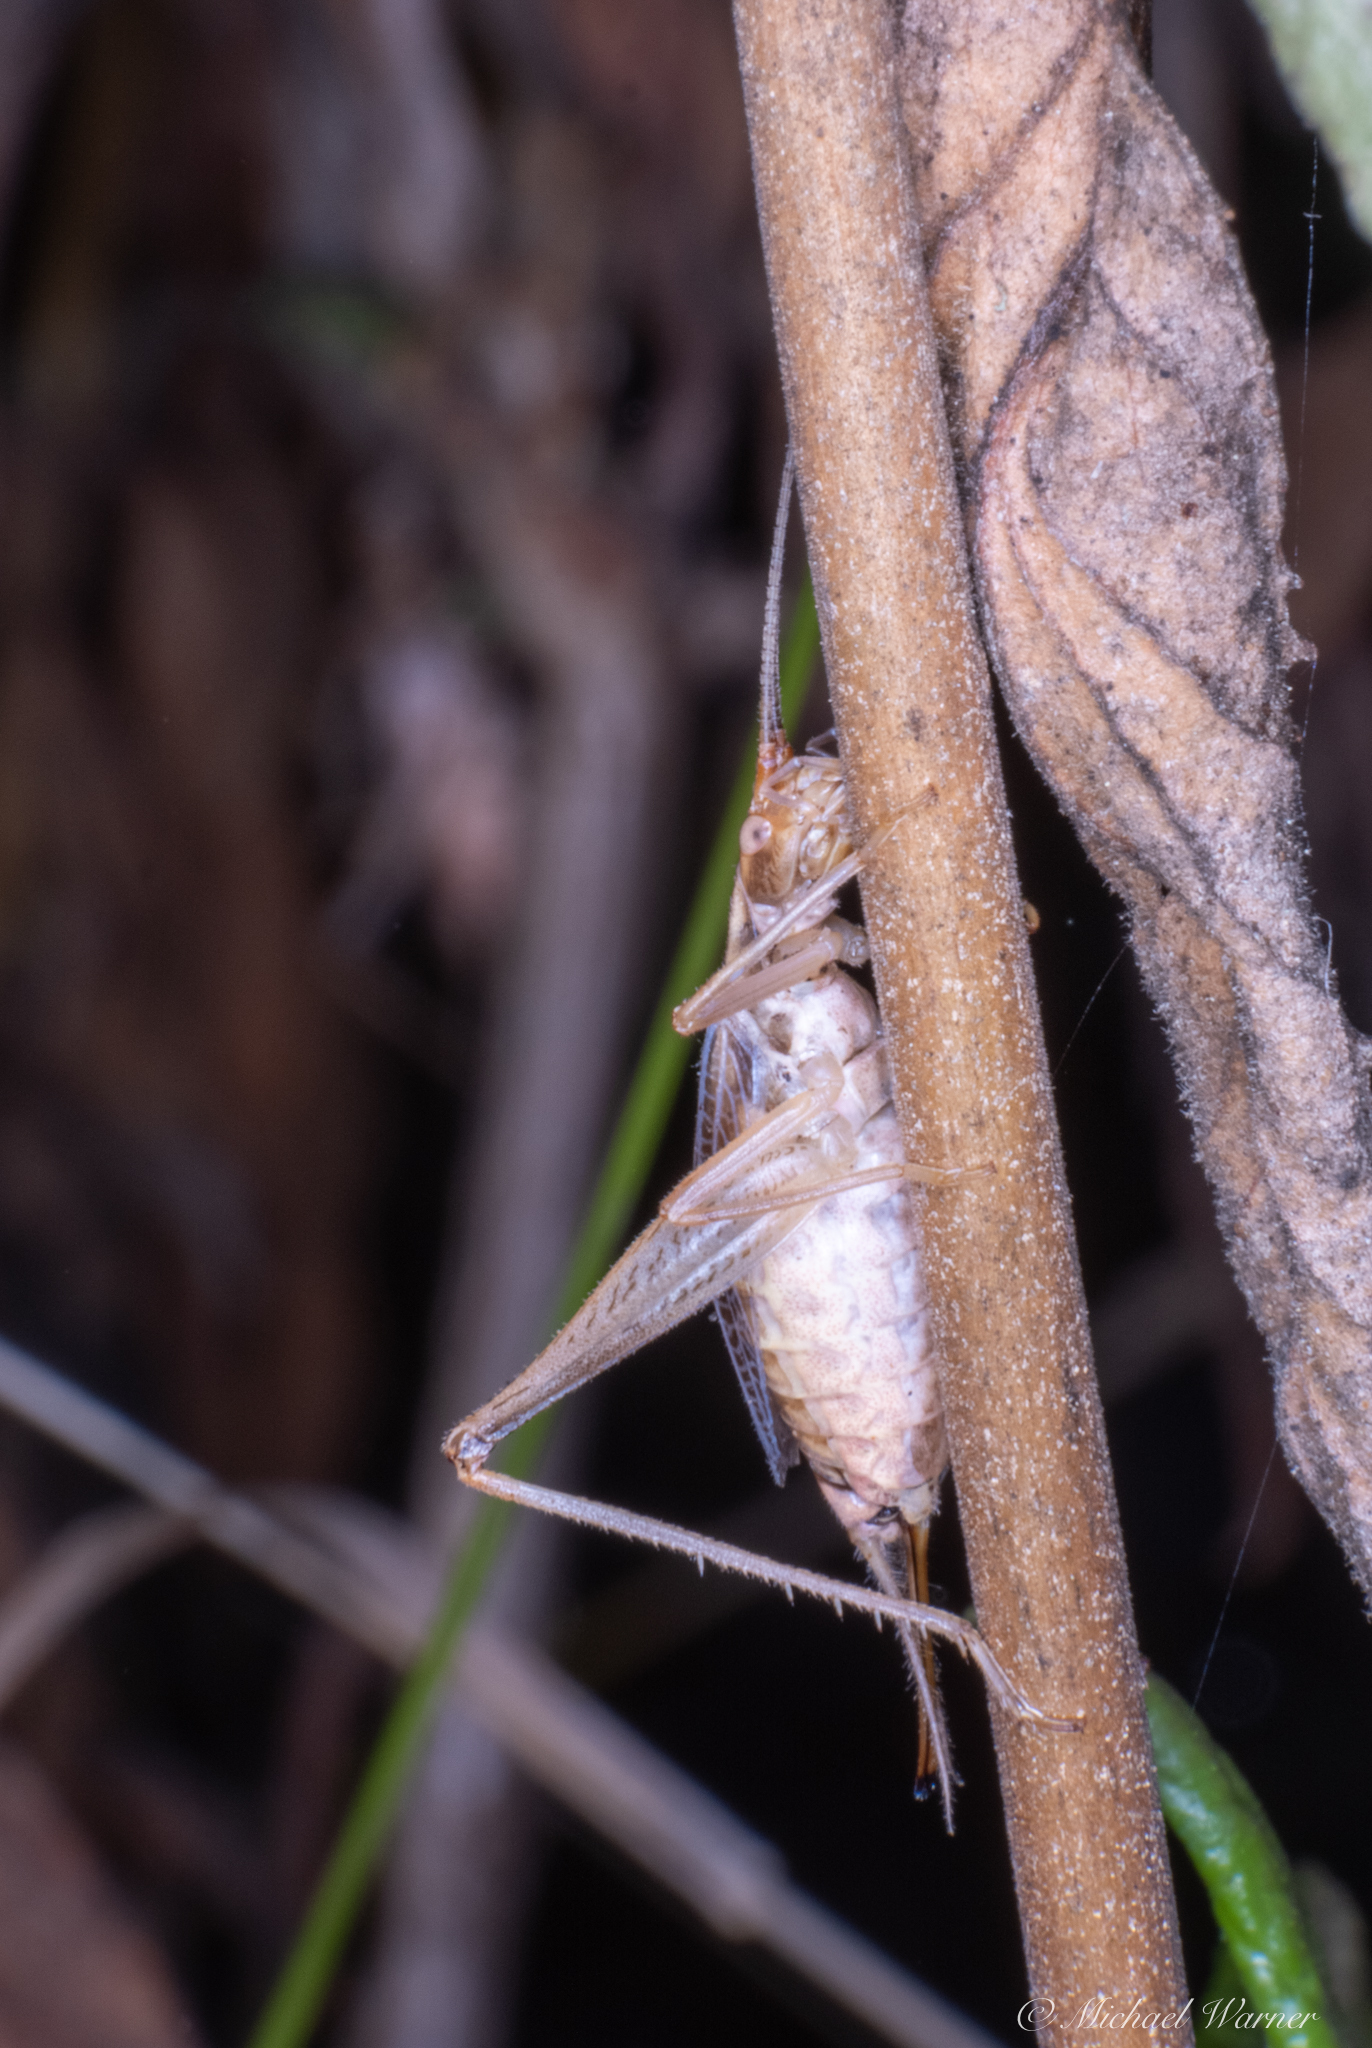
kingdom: Animalia
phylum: Arthropoda
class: Insecta
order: Orthoptera
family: Gryllidae
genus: Oecanthus
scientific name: Oecanthus californicus
